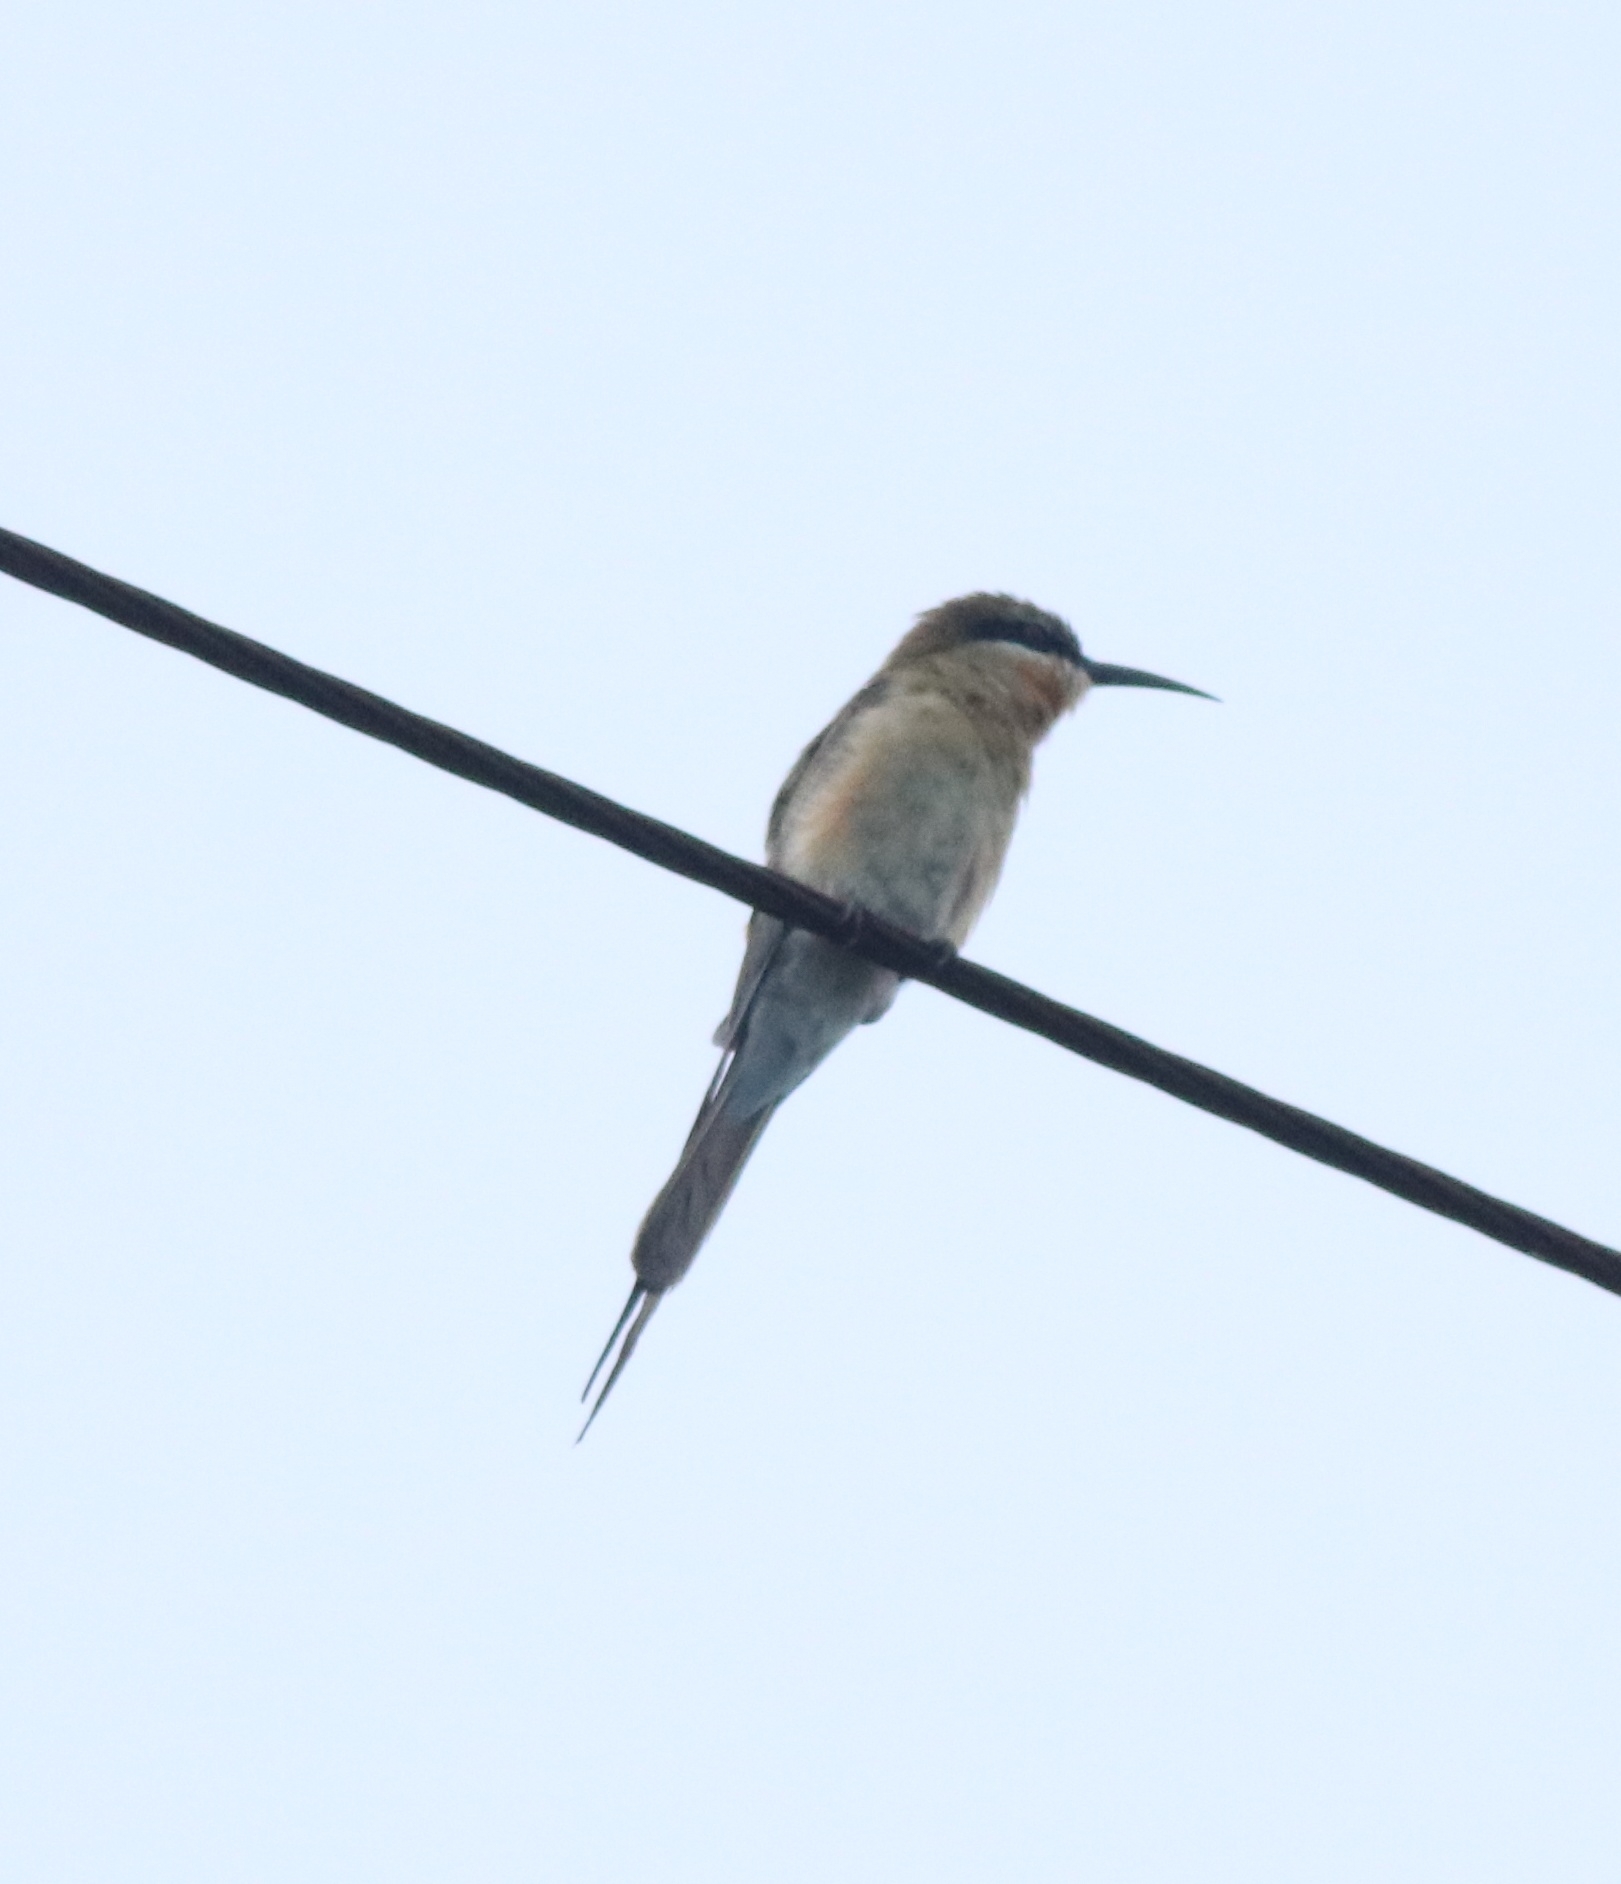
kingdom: Animalia
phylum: Chordata
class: Aves
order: Coraciiformes
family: Meropidae
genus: Merops
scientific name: Merops philippinus
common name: Blue-tailed bee-eater
